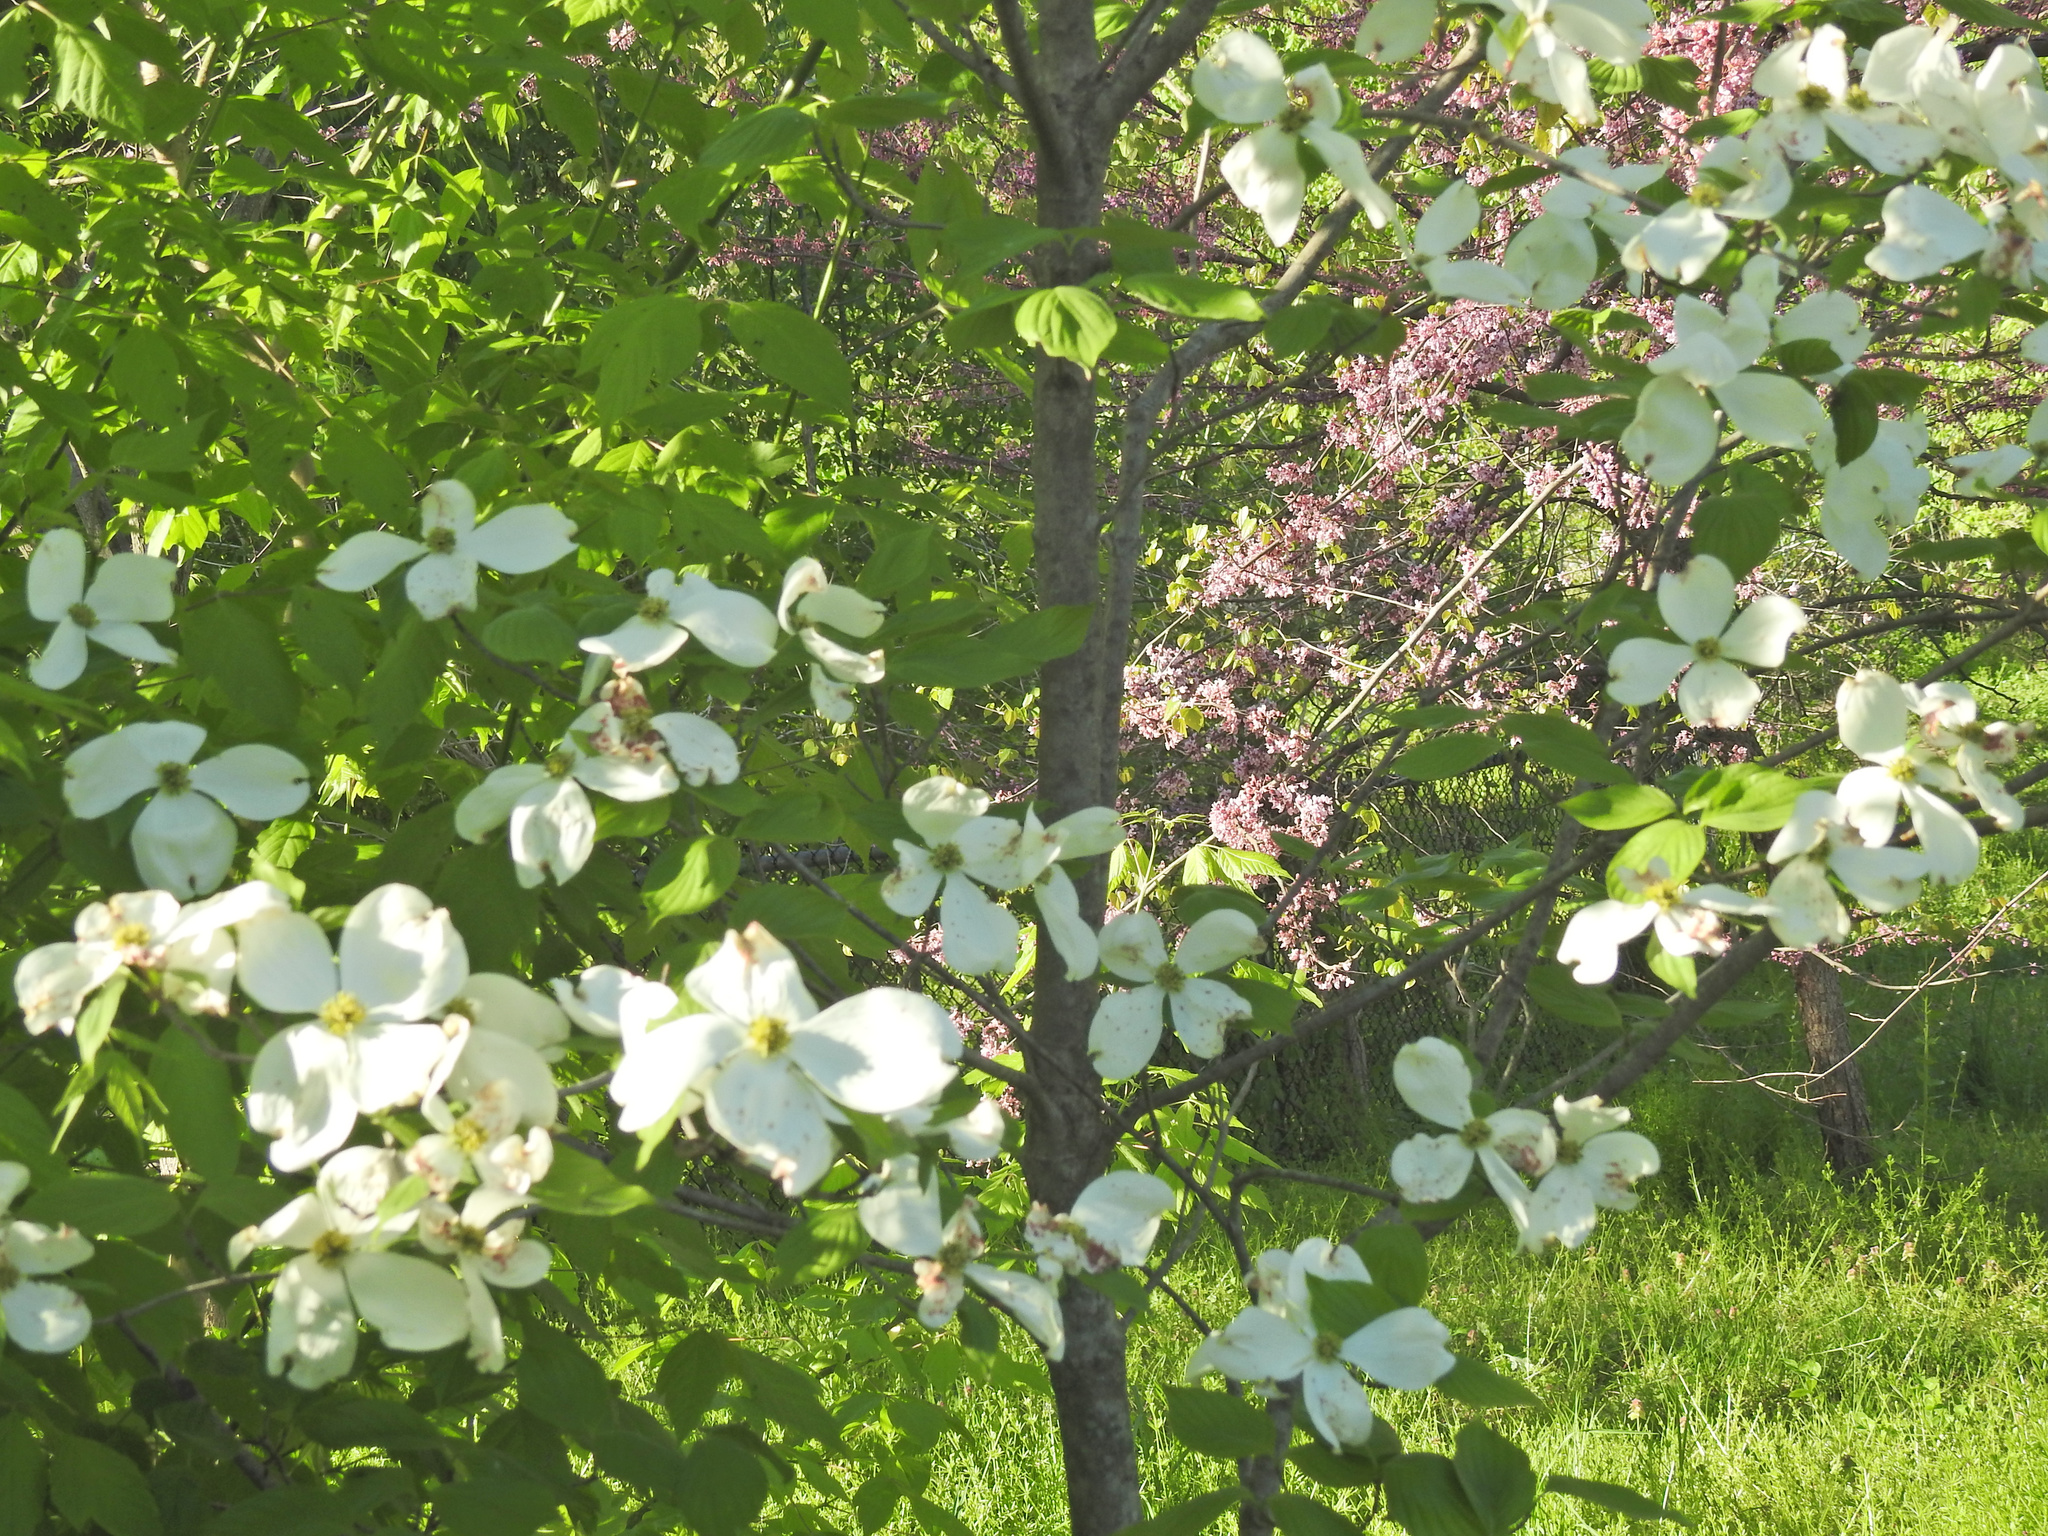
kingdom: Plantae
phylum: Tracheophyta
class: Magnoliopsida
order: Cornales
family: Cornaceae
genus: Cornus
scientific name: Cornus florida
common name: Flowering dogwood
